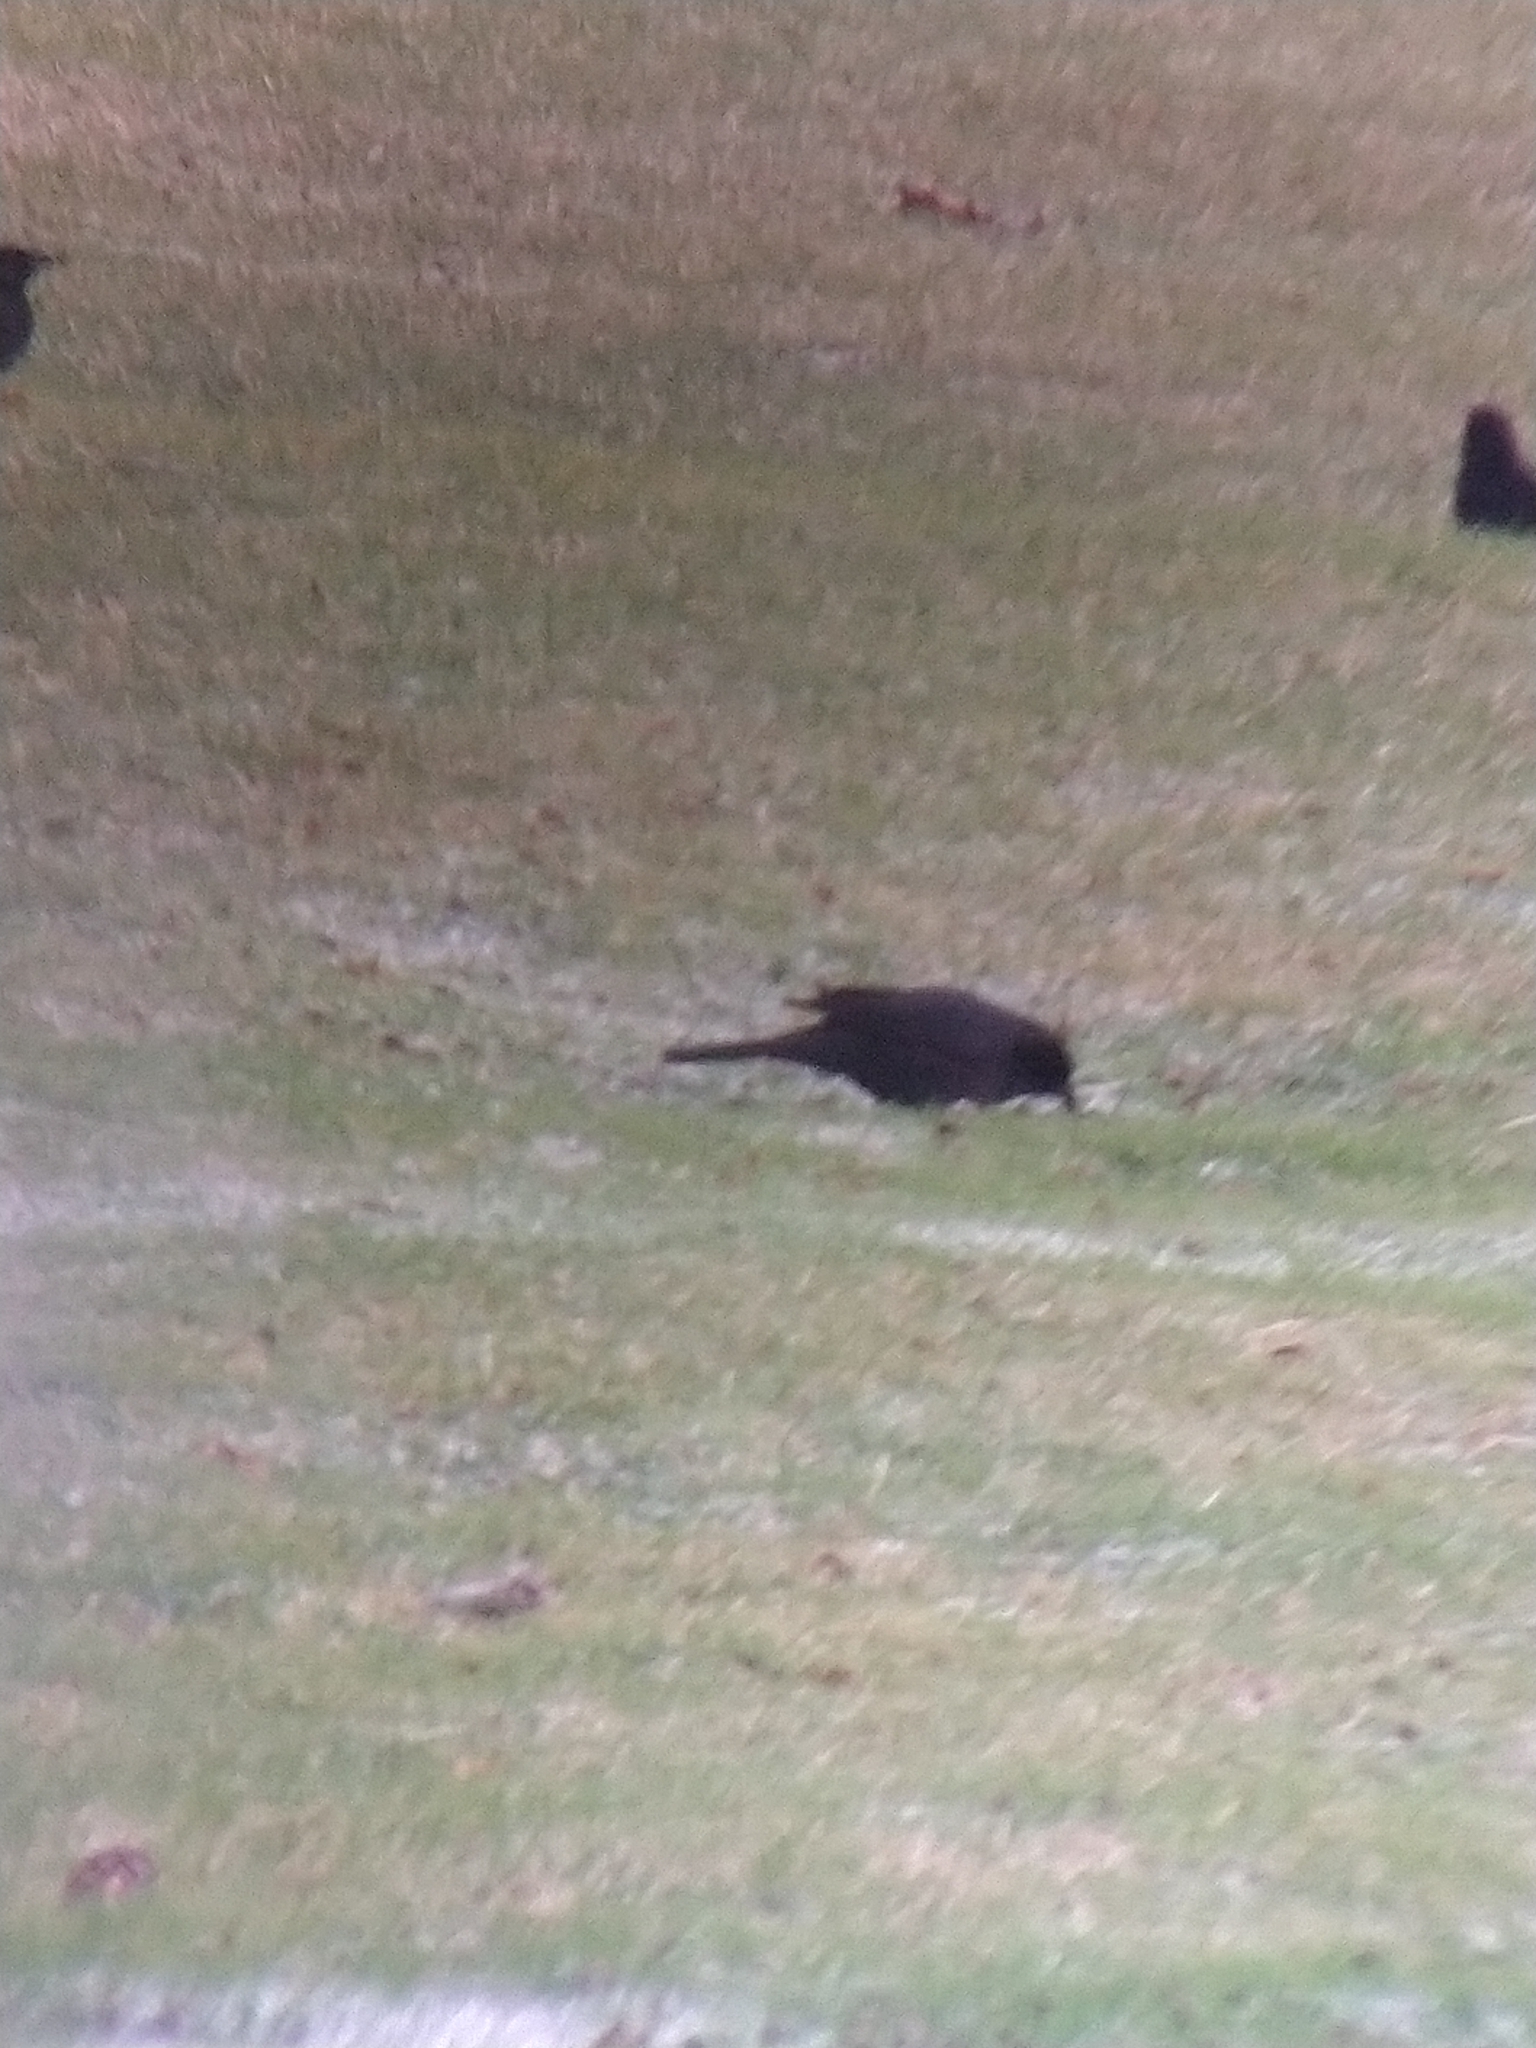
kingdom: Animalia
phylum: Chordata
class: Aves
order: Passeriformes
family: Icteridae
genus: Curaeus
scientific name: Curaeus curaeus
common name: Austral blackbird
